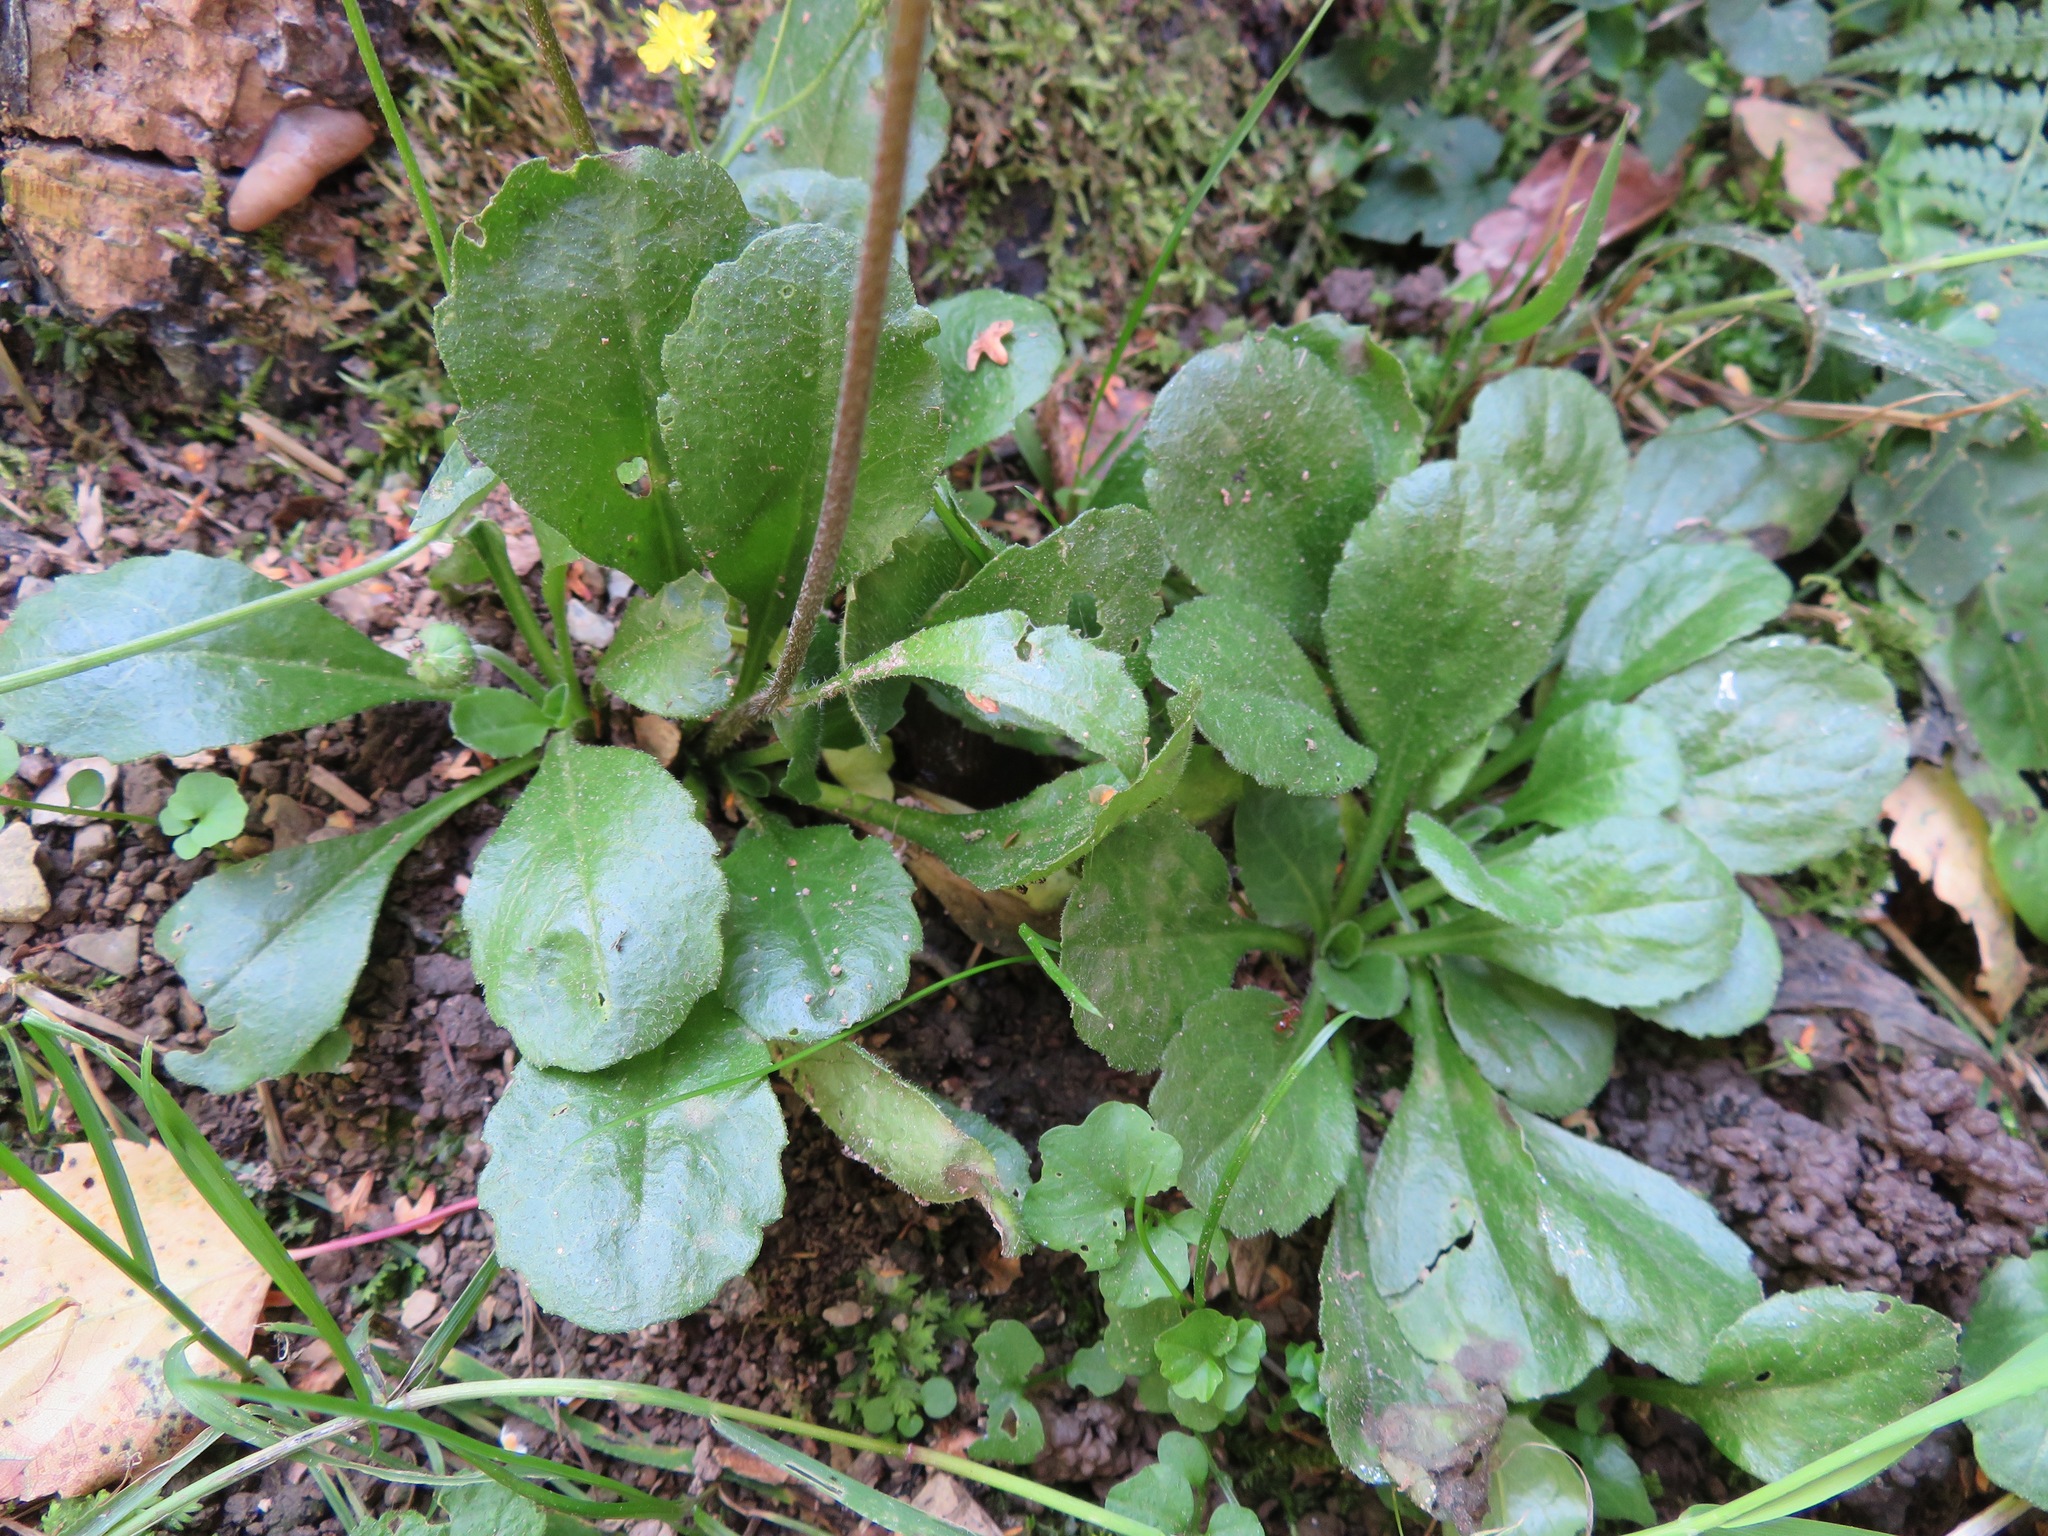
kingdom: Plantae
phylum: Tracheophyta
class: Magnoliopsida
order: Asterales
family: Asteraceae
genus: Bellis
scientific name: Bellis perennis
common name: Lawndaisy
